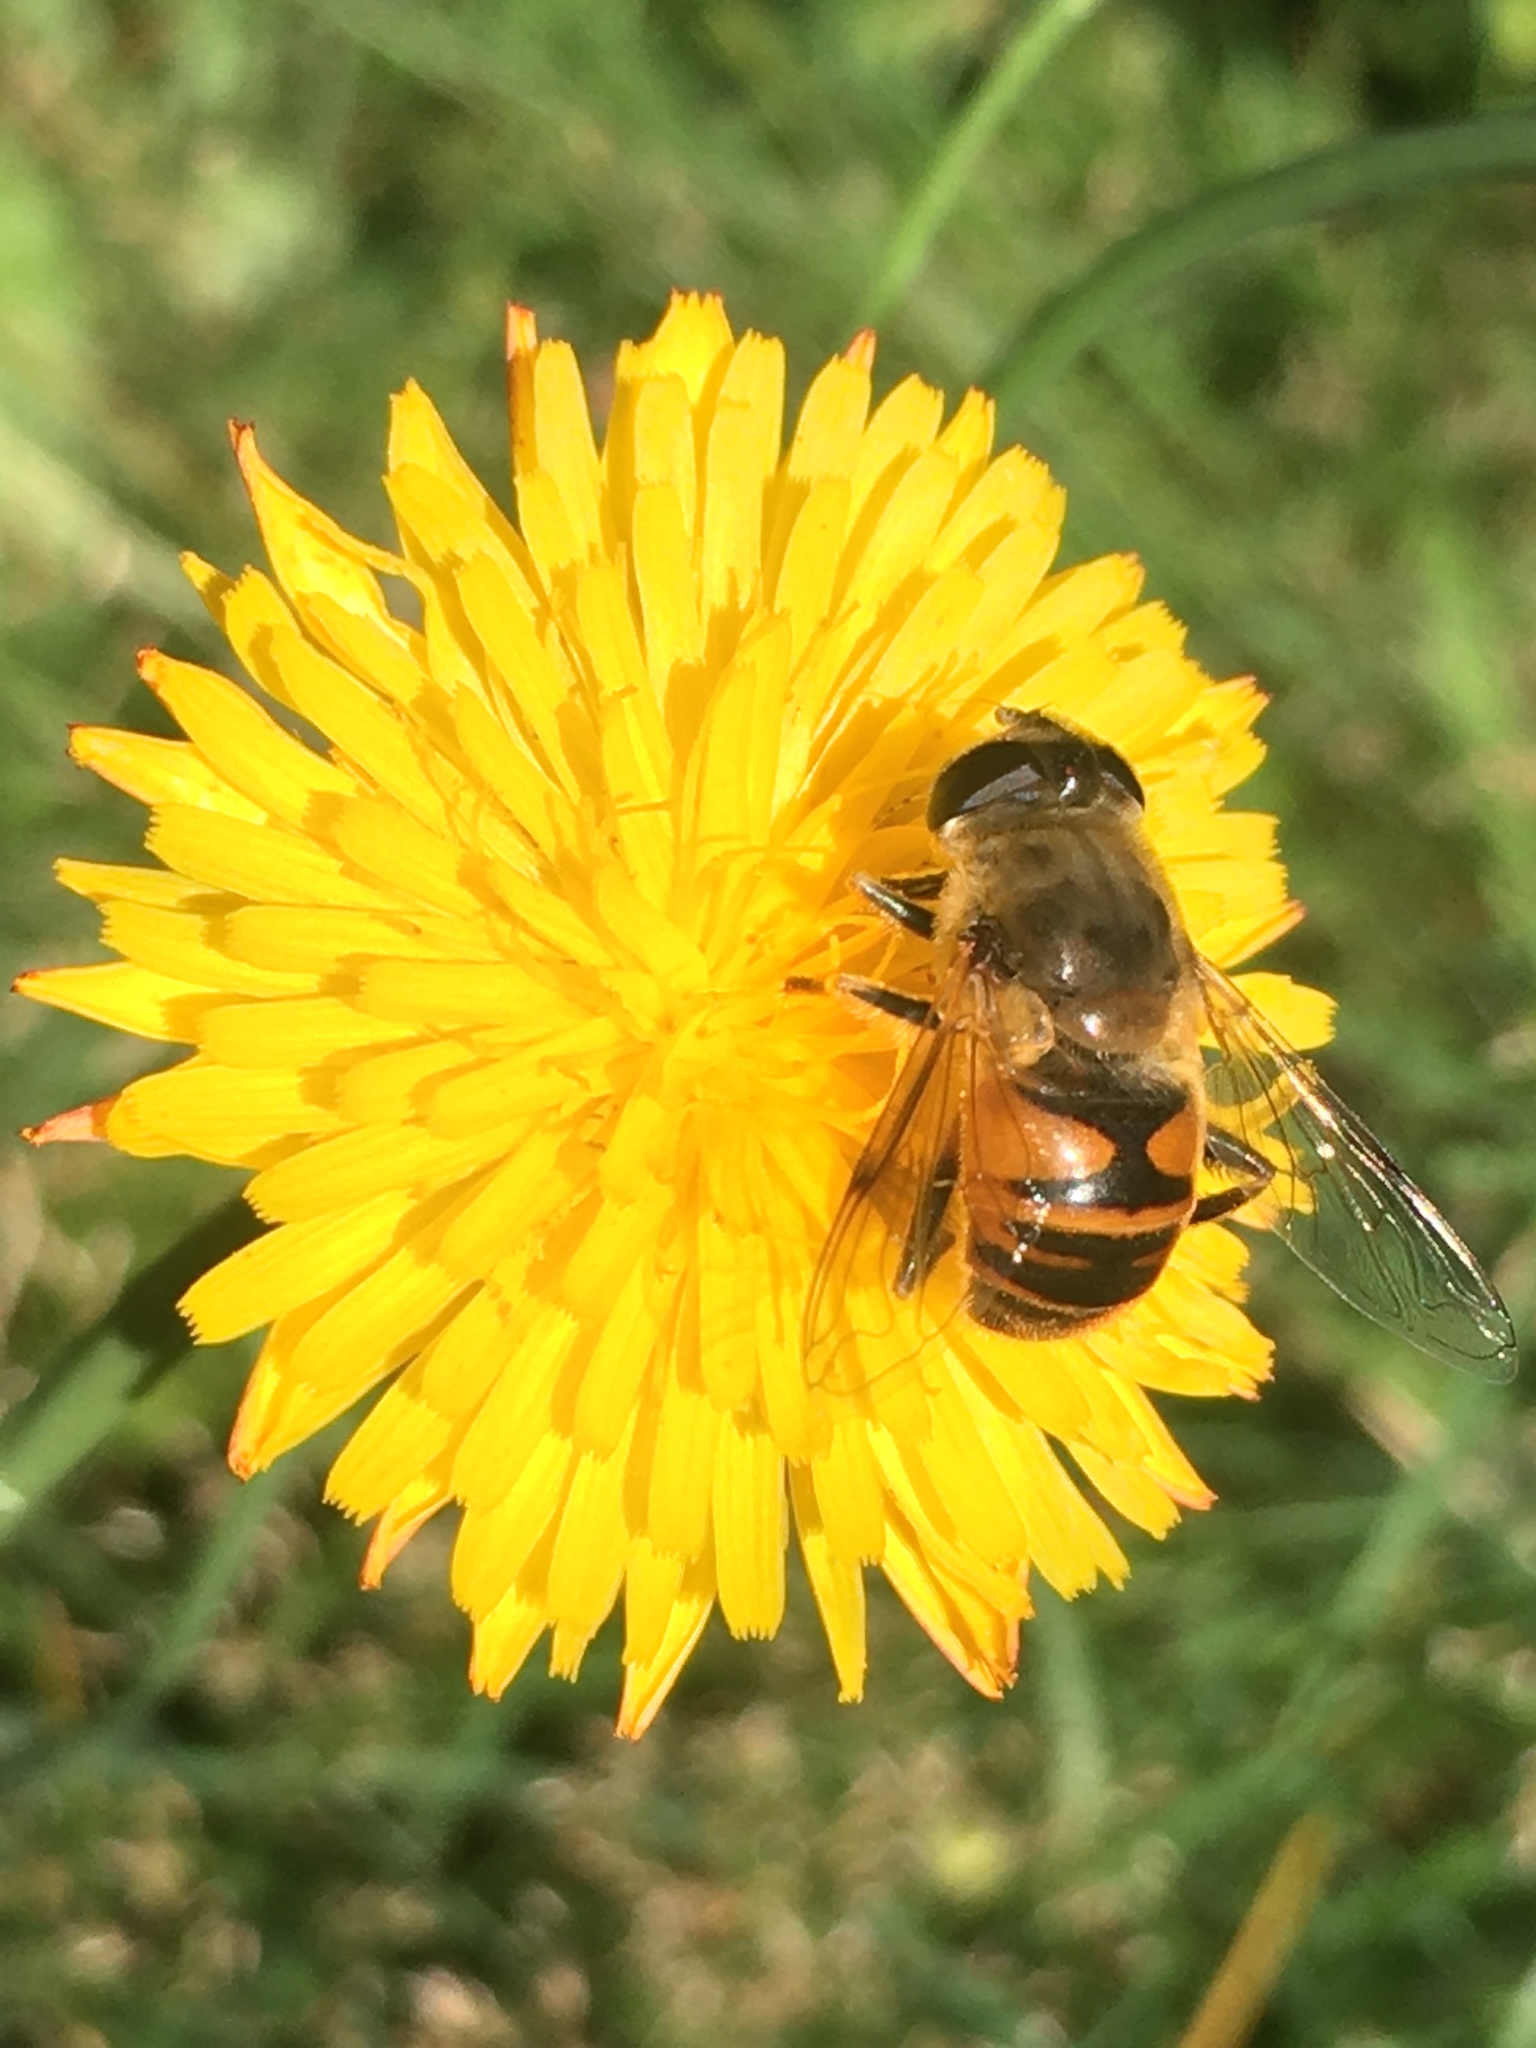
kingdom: Animalia
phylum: Arthropoda
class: Insecta
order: Diptera
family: Syrphidae
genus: Eristalis
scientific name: Eristalis tenax
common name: Drone fly
